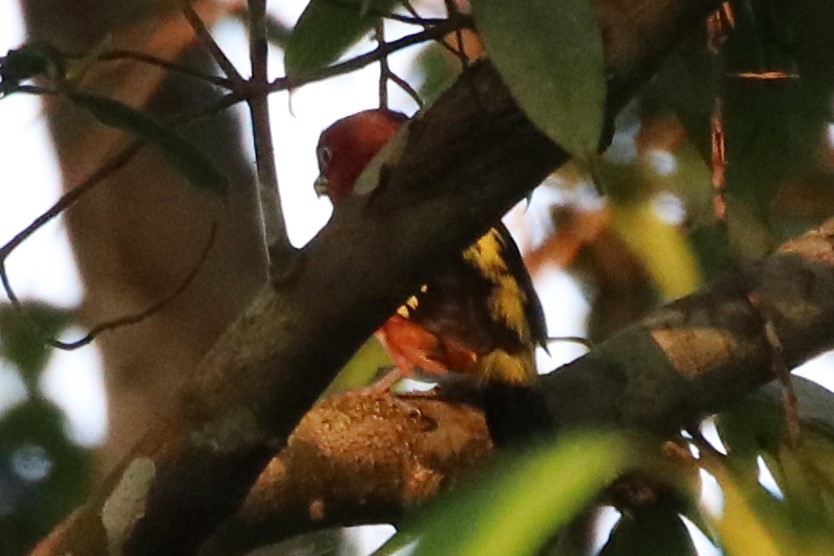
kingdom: Animalia
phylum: Chordata
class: Aves
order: Passeriformes
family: Eurylaimidae
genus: Eurylaimus
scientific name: Eurylaimus javanicus
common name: Banded broadbill
